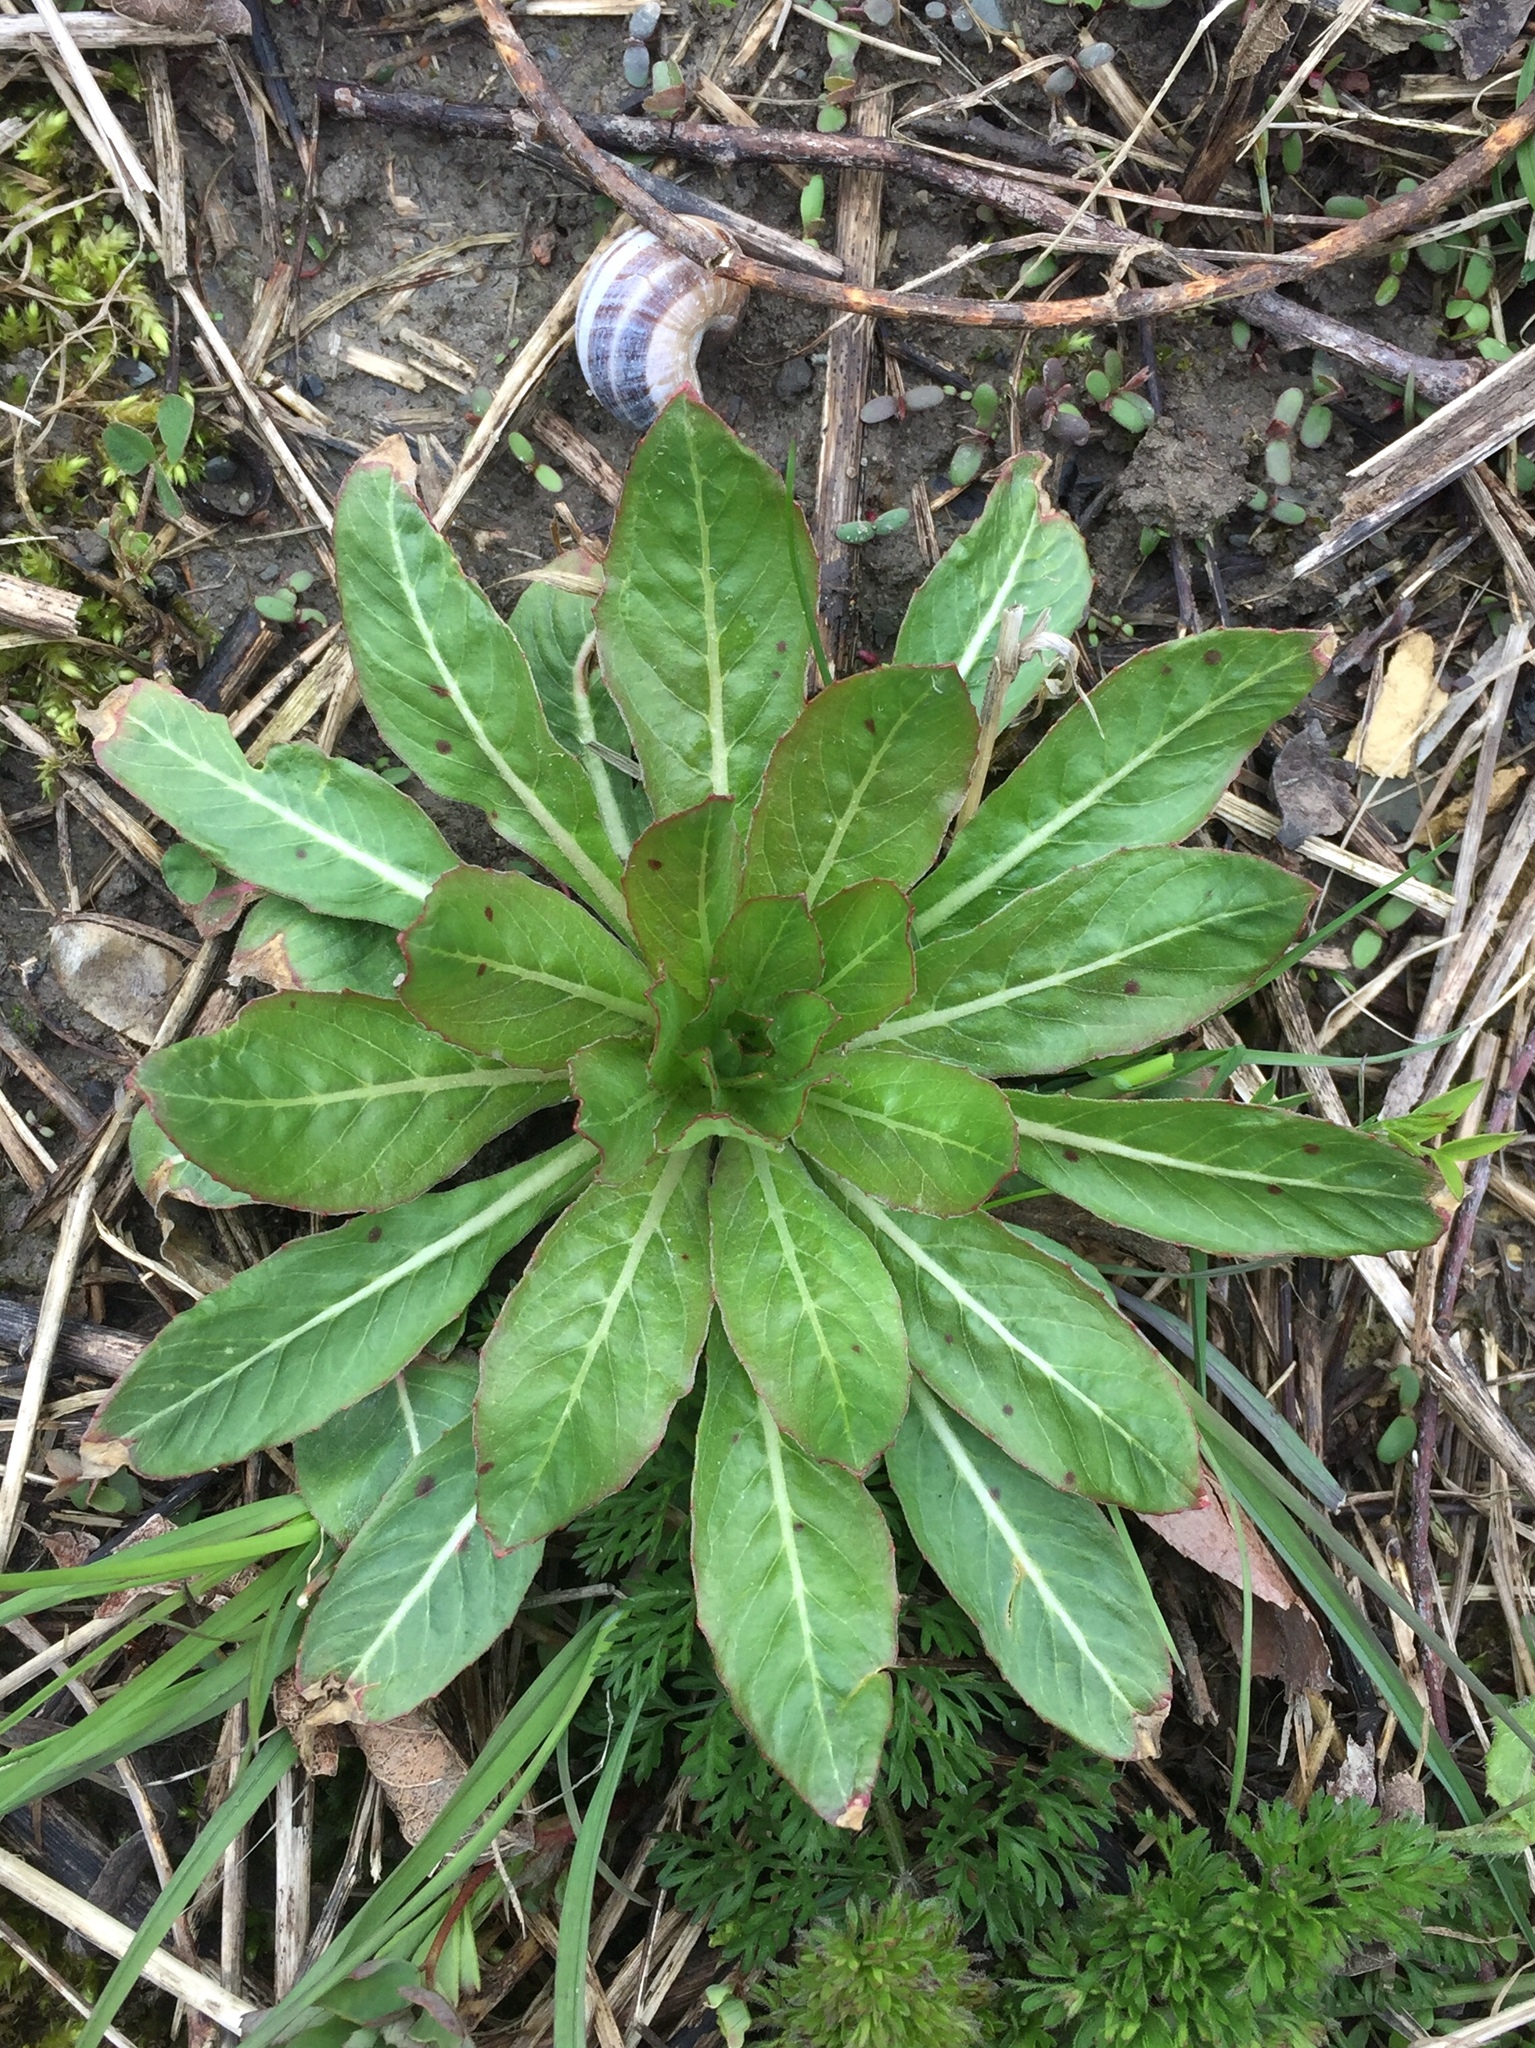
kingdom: Plantae
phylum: Tracheophyta
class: Magnoliopsida
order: Myrtales
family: Onagraceae
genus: Oenothera
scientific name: Oenothera biennis
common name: Common evening-primrose
